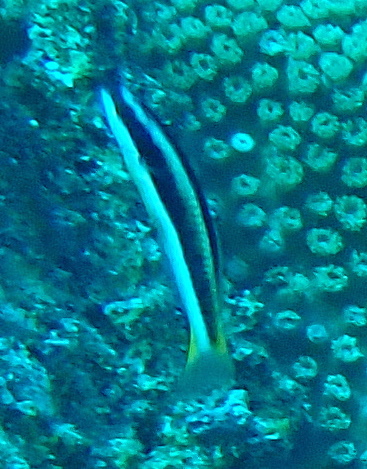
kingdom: Animalia
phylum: Chordata
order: Perciformes
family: Labridae
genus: Thalassoma
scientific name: Thalassoma amblycephalum
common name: Bluehead wrasse
